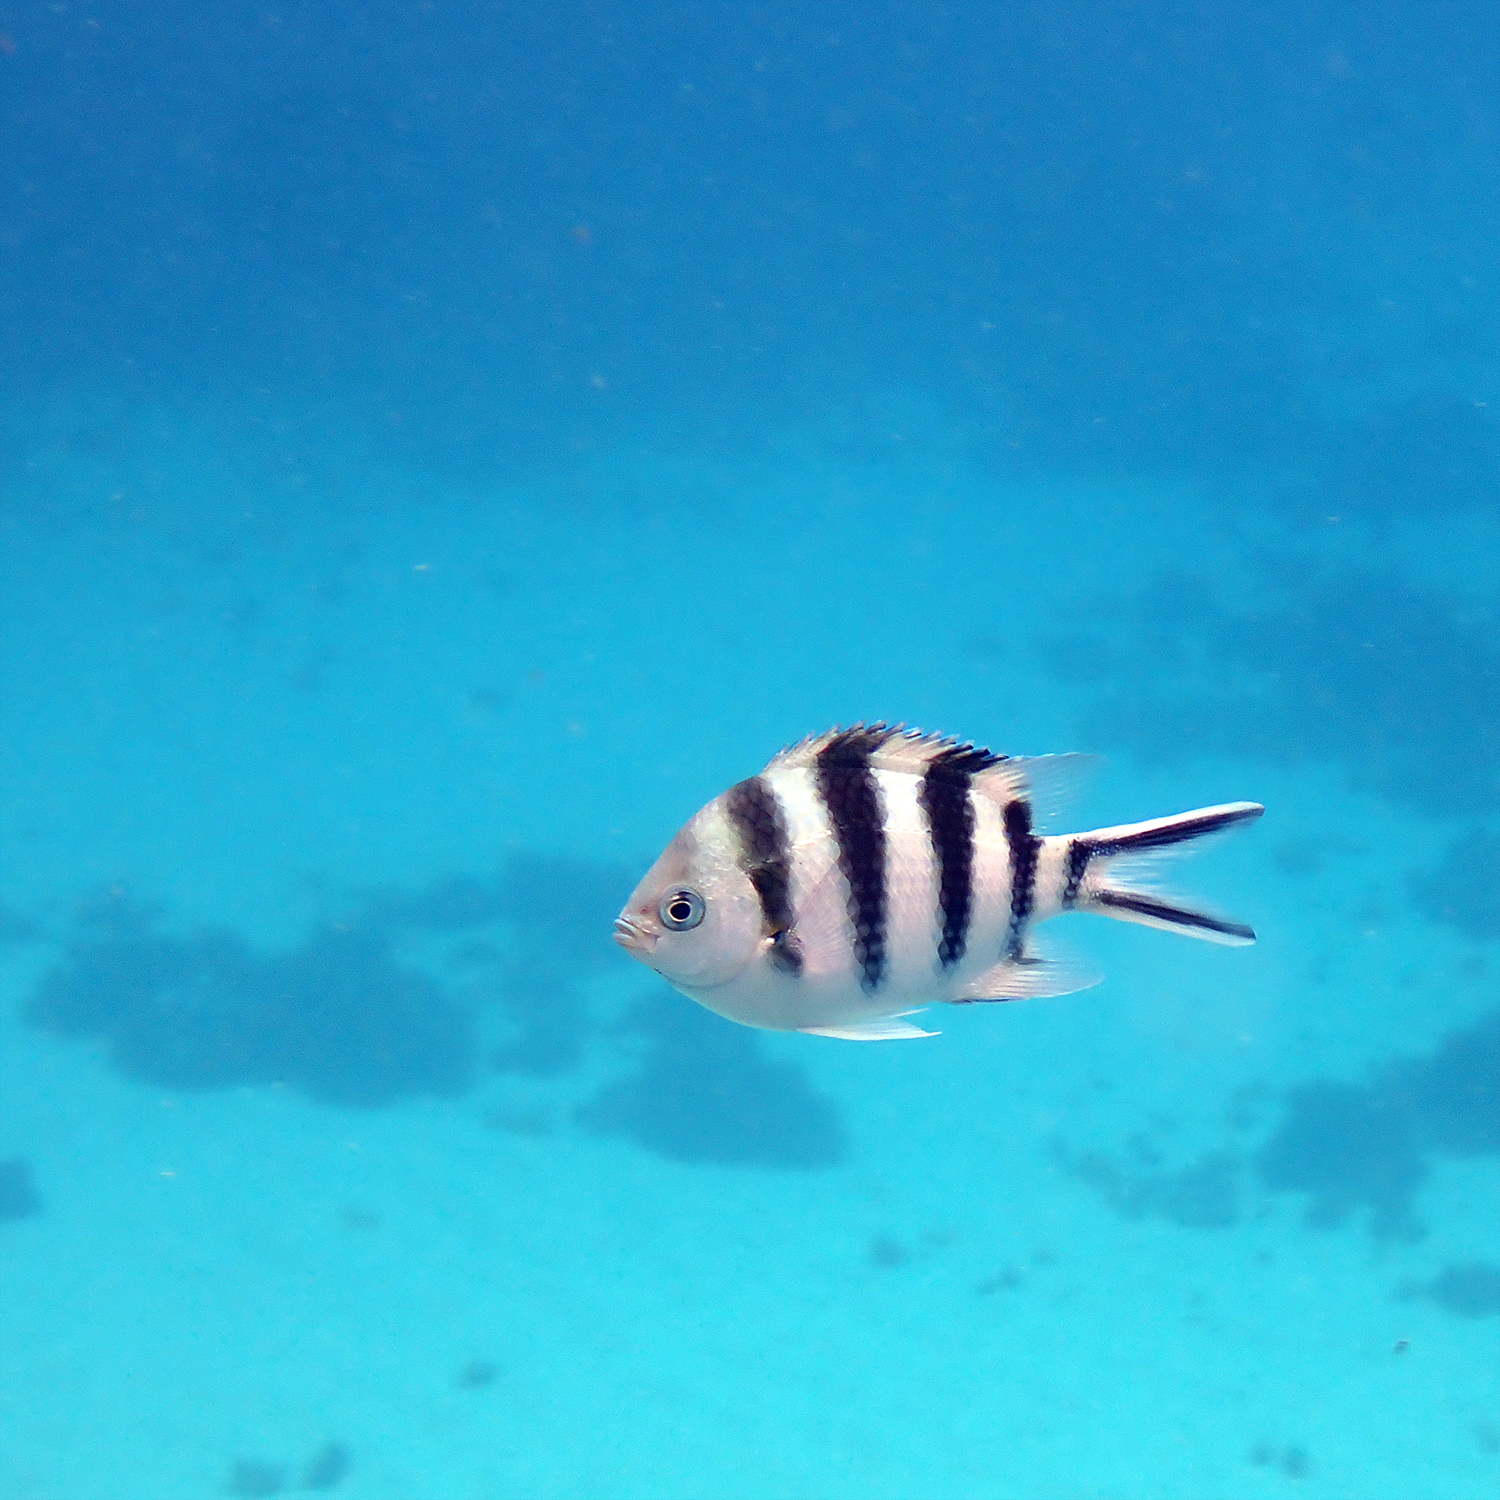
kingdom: Animalia
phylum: Chordata
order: Perciformes
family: Pomacentridae
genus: Abudefduf
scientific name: Abudefduf sexfasciatus
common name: Scissortail sergeant
